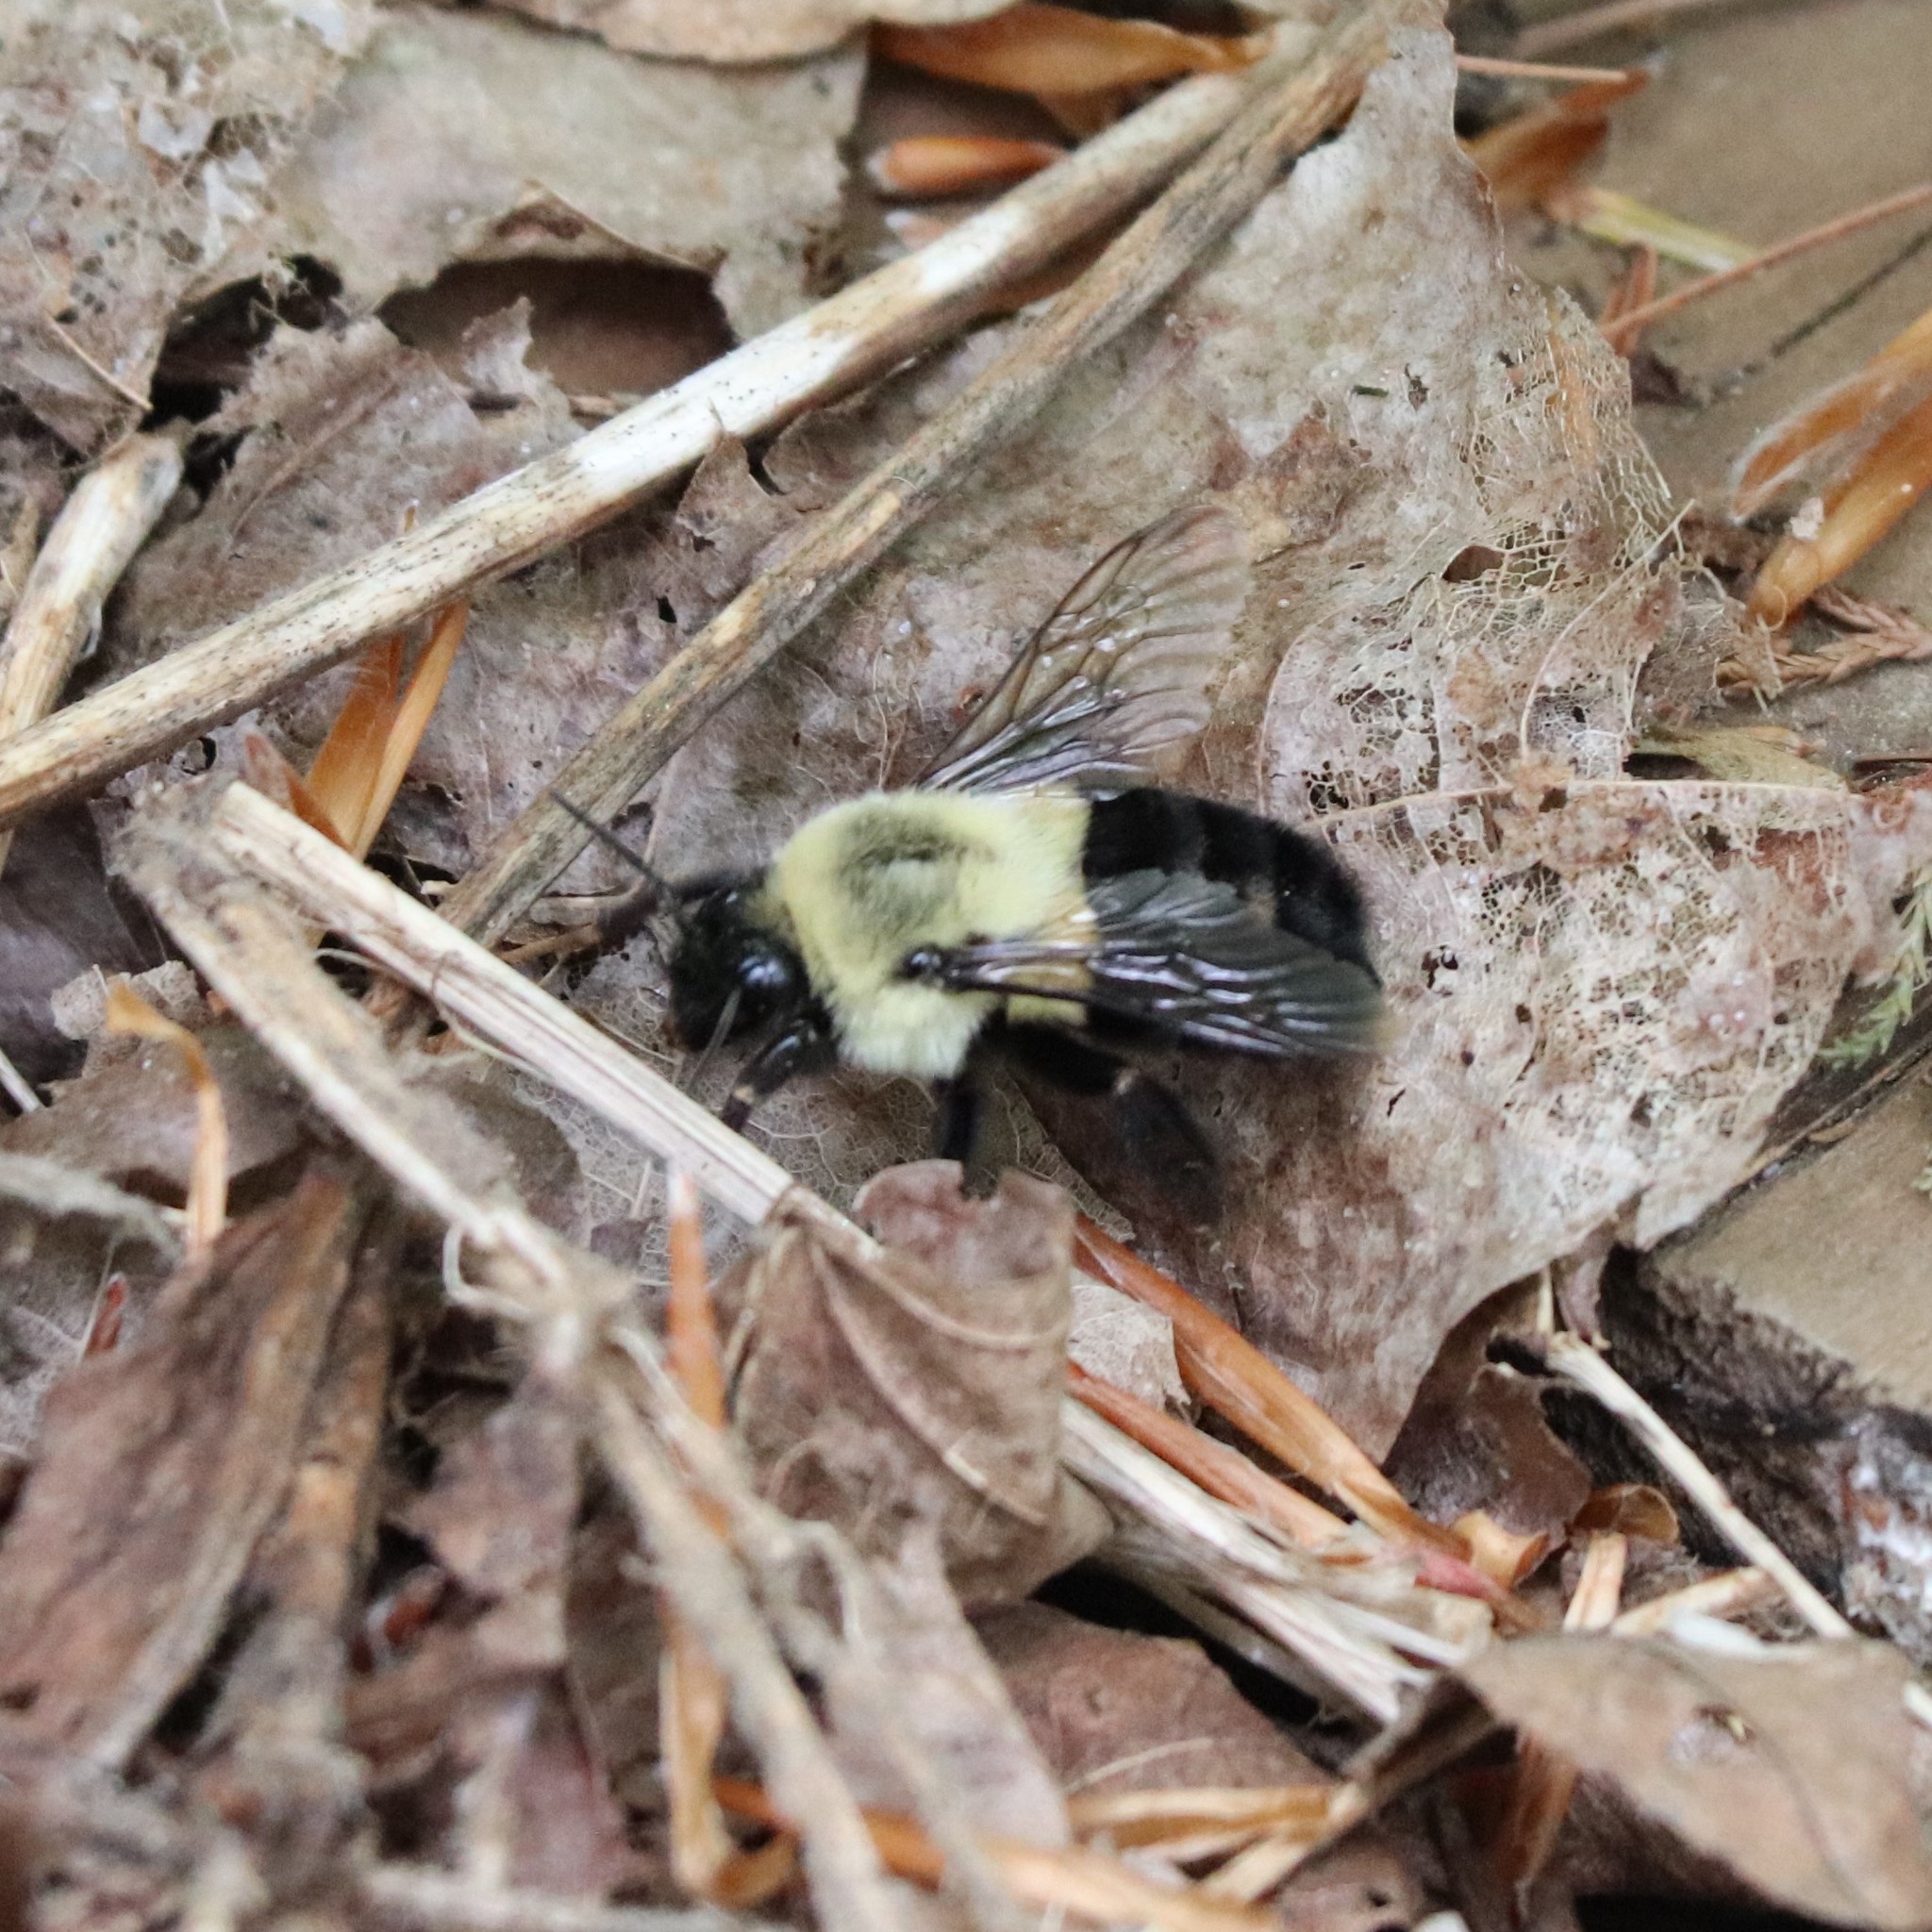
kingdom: Animalia
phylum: Arthropoda
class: Insecta
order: Hymenoptera
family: Apidae
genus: Bombus
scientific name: Bombus impatiens
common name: Common eastern bumble bee
